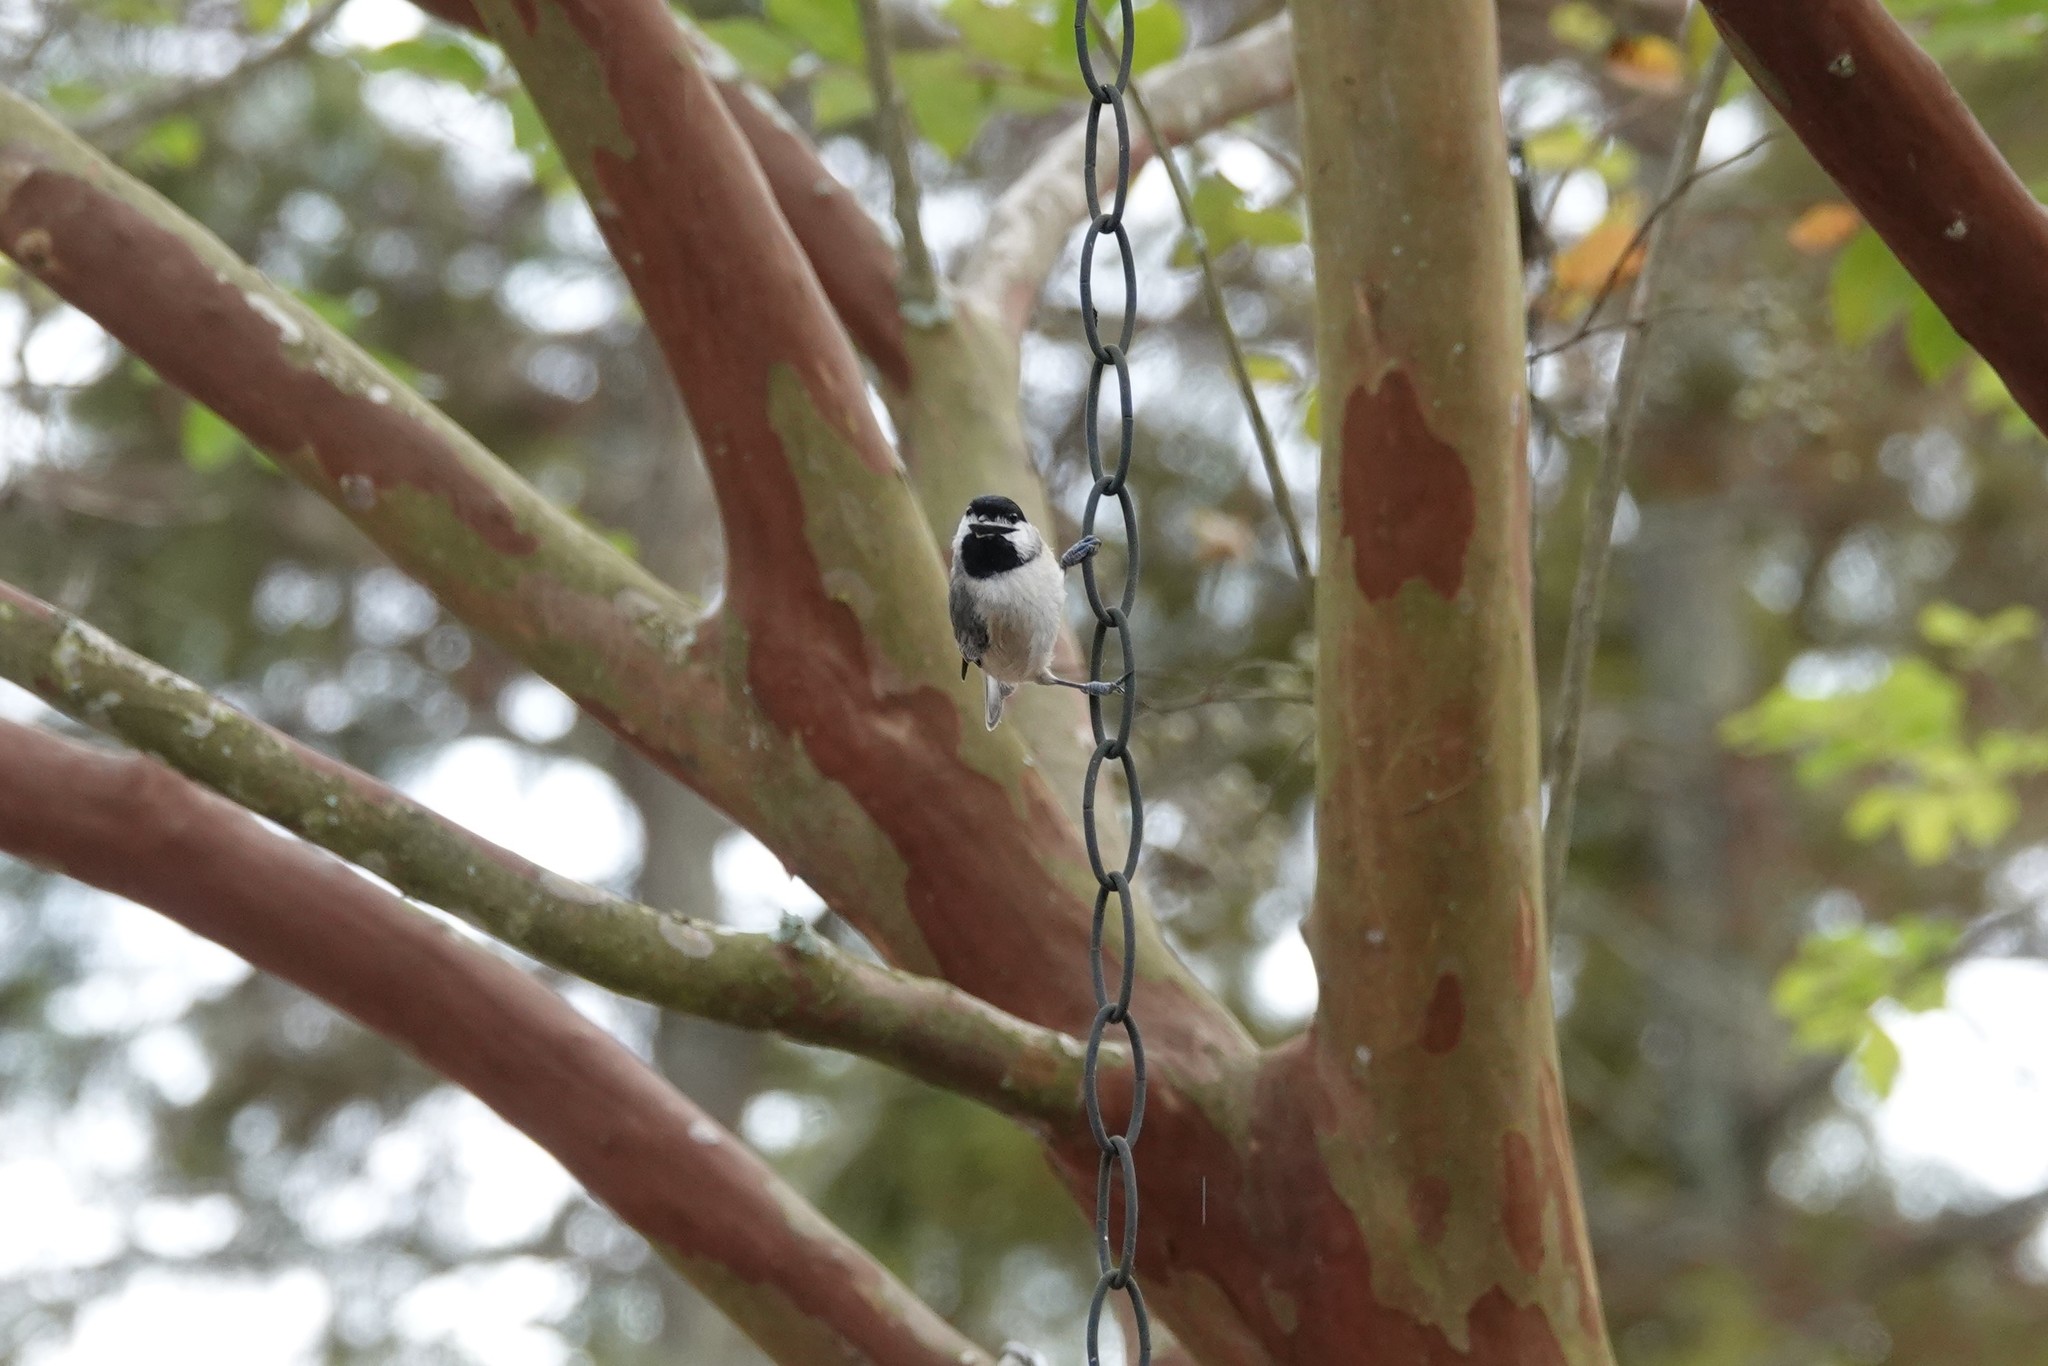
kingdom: Animalia
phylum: Chordata
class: Aves
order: Passeriformes
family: Paridae
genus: Poecile
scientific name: Poecile carolinensis
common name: Carolina chickadee
